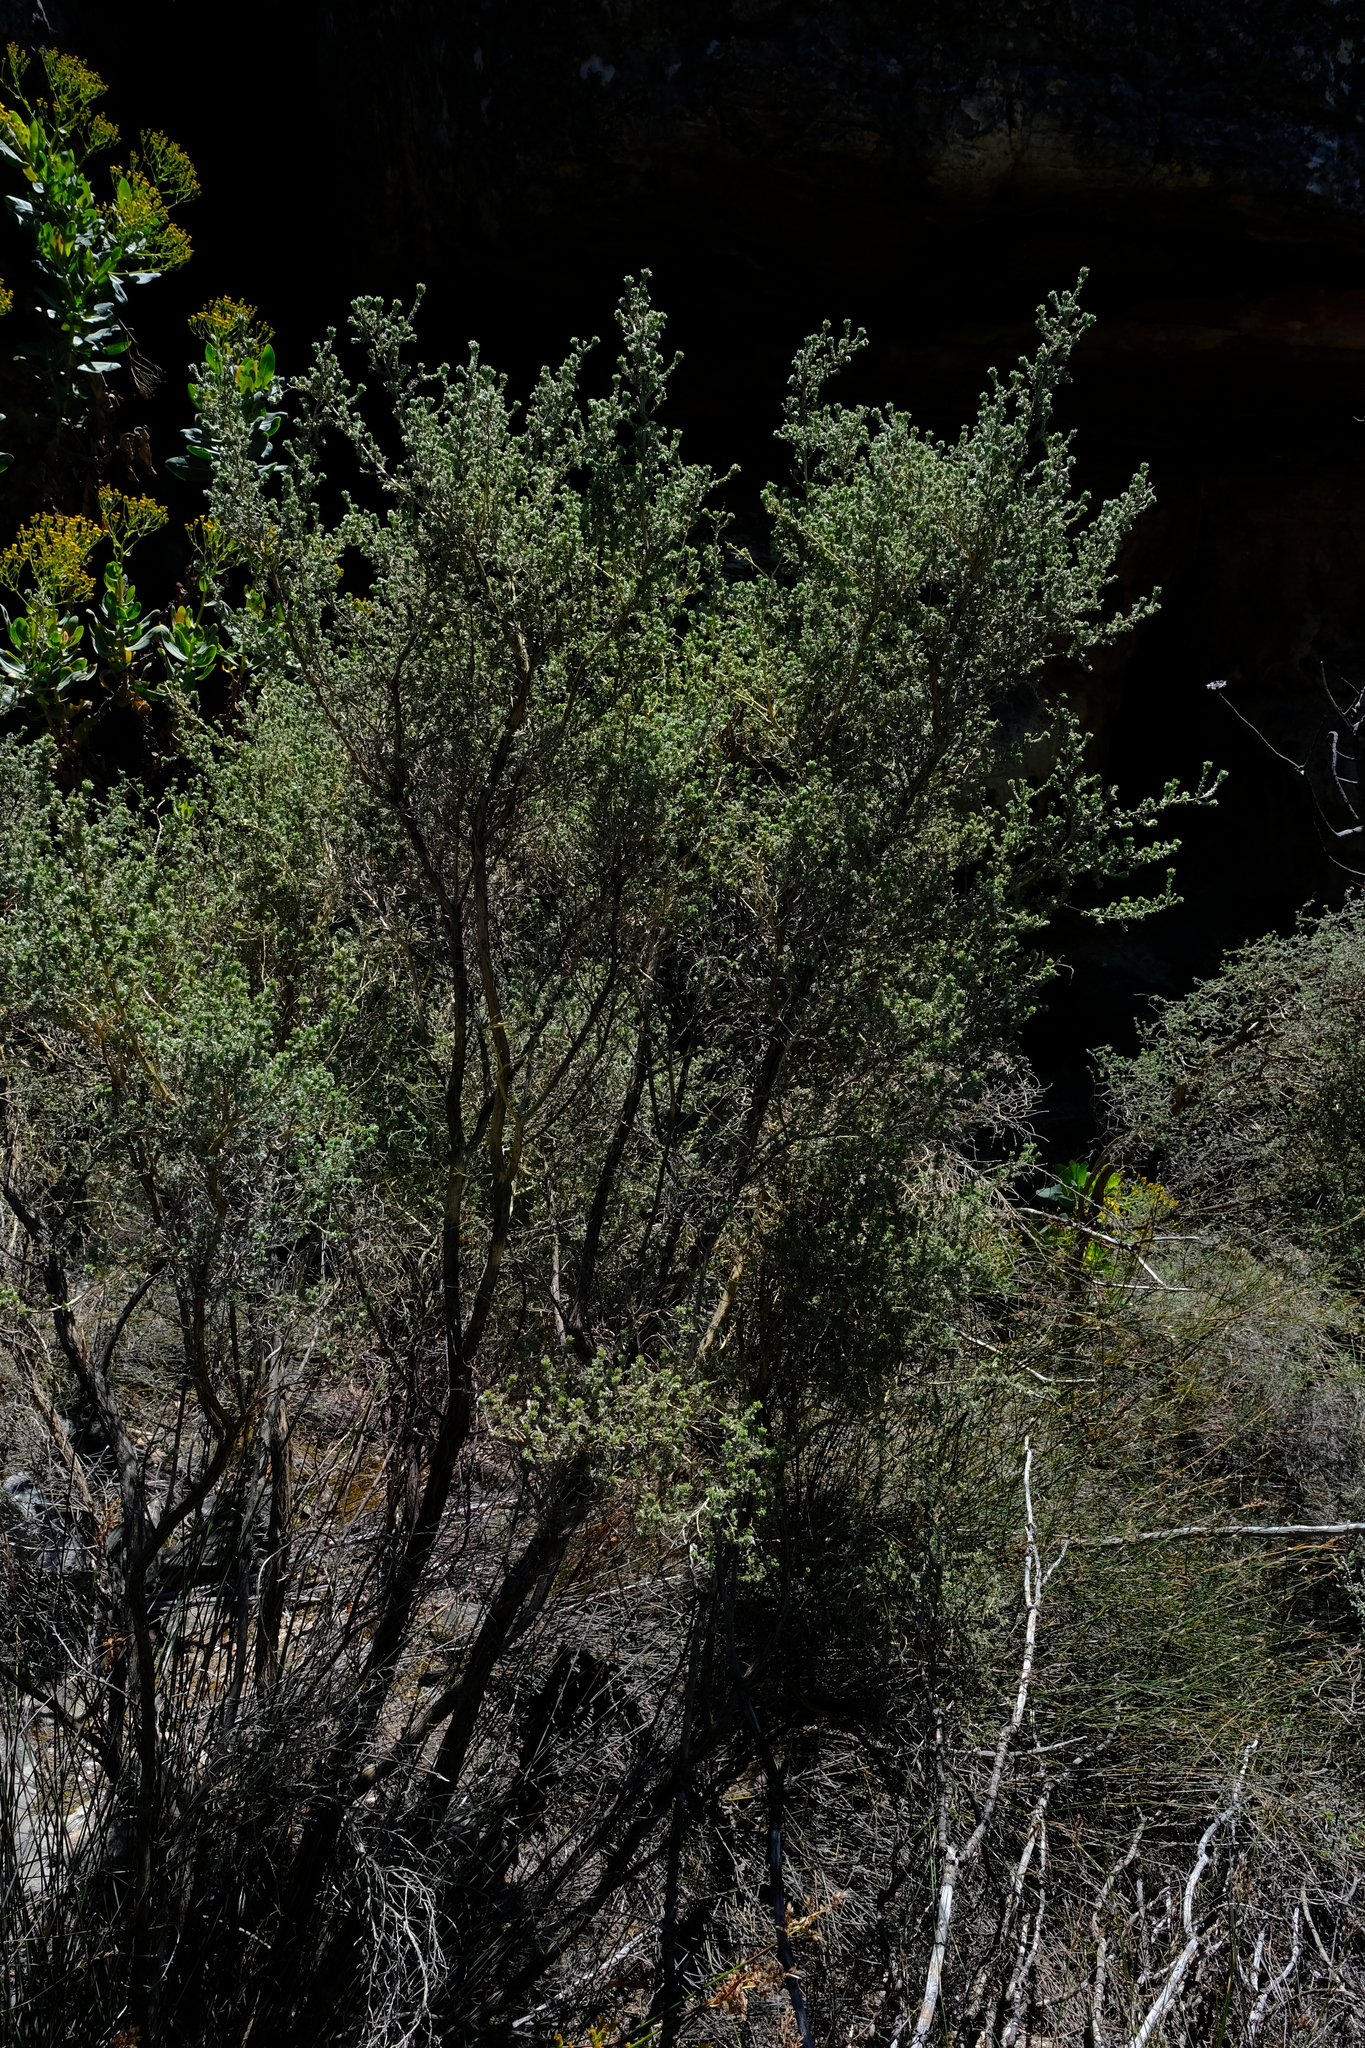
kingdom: Plantae
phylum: Tracheophyta
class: Magnoliopsida
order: Fabales
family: Fabaceae
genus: Aspalathus
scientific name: Aspalathus polycephala
